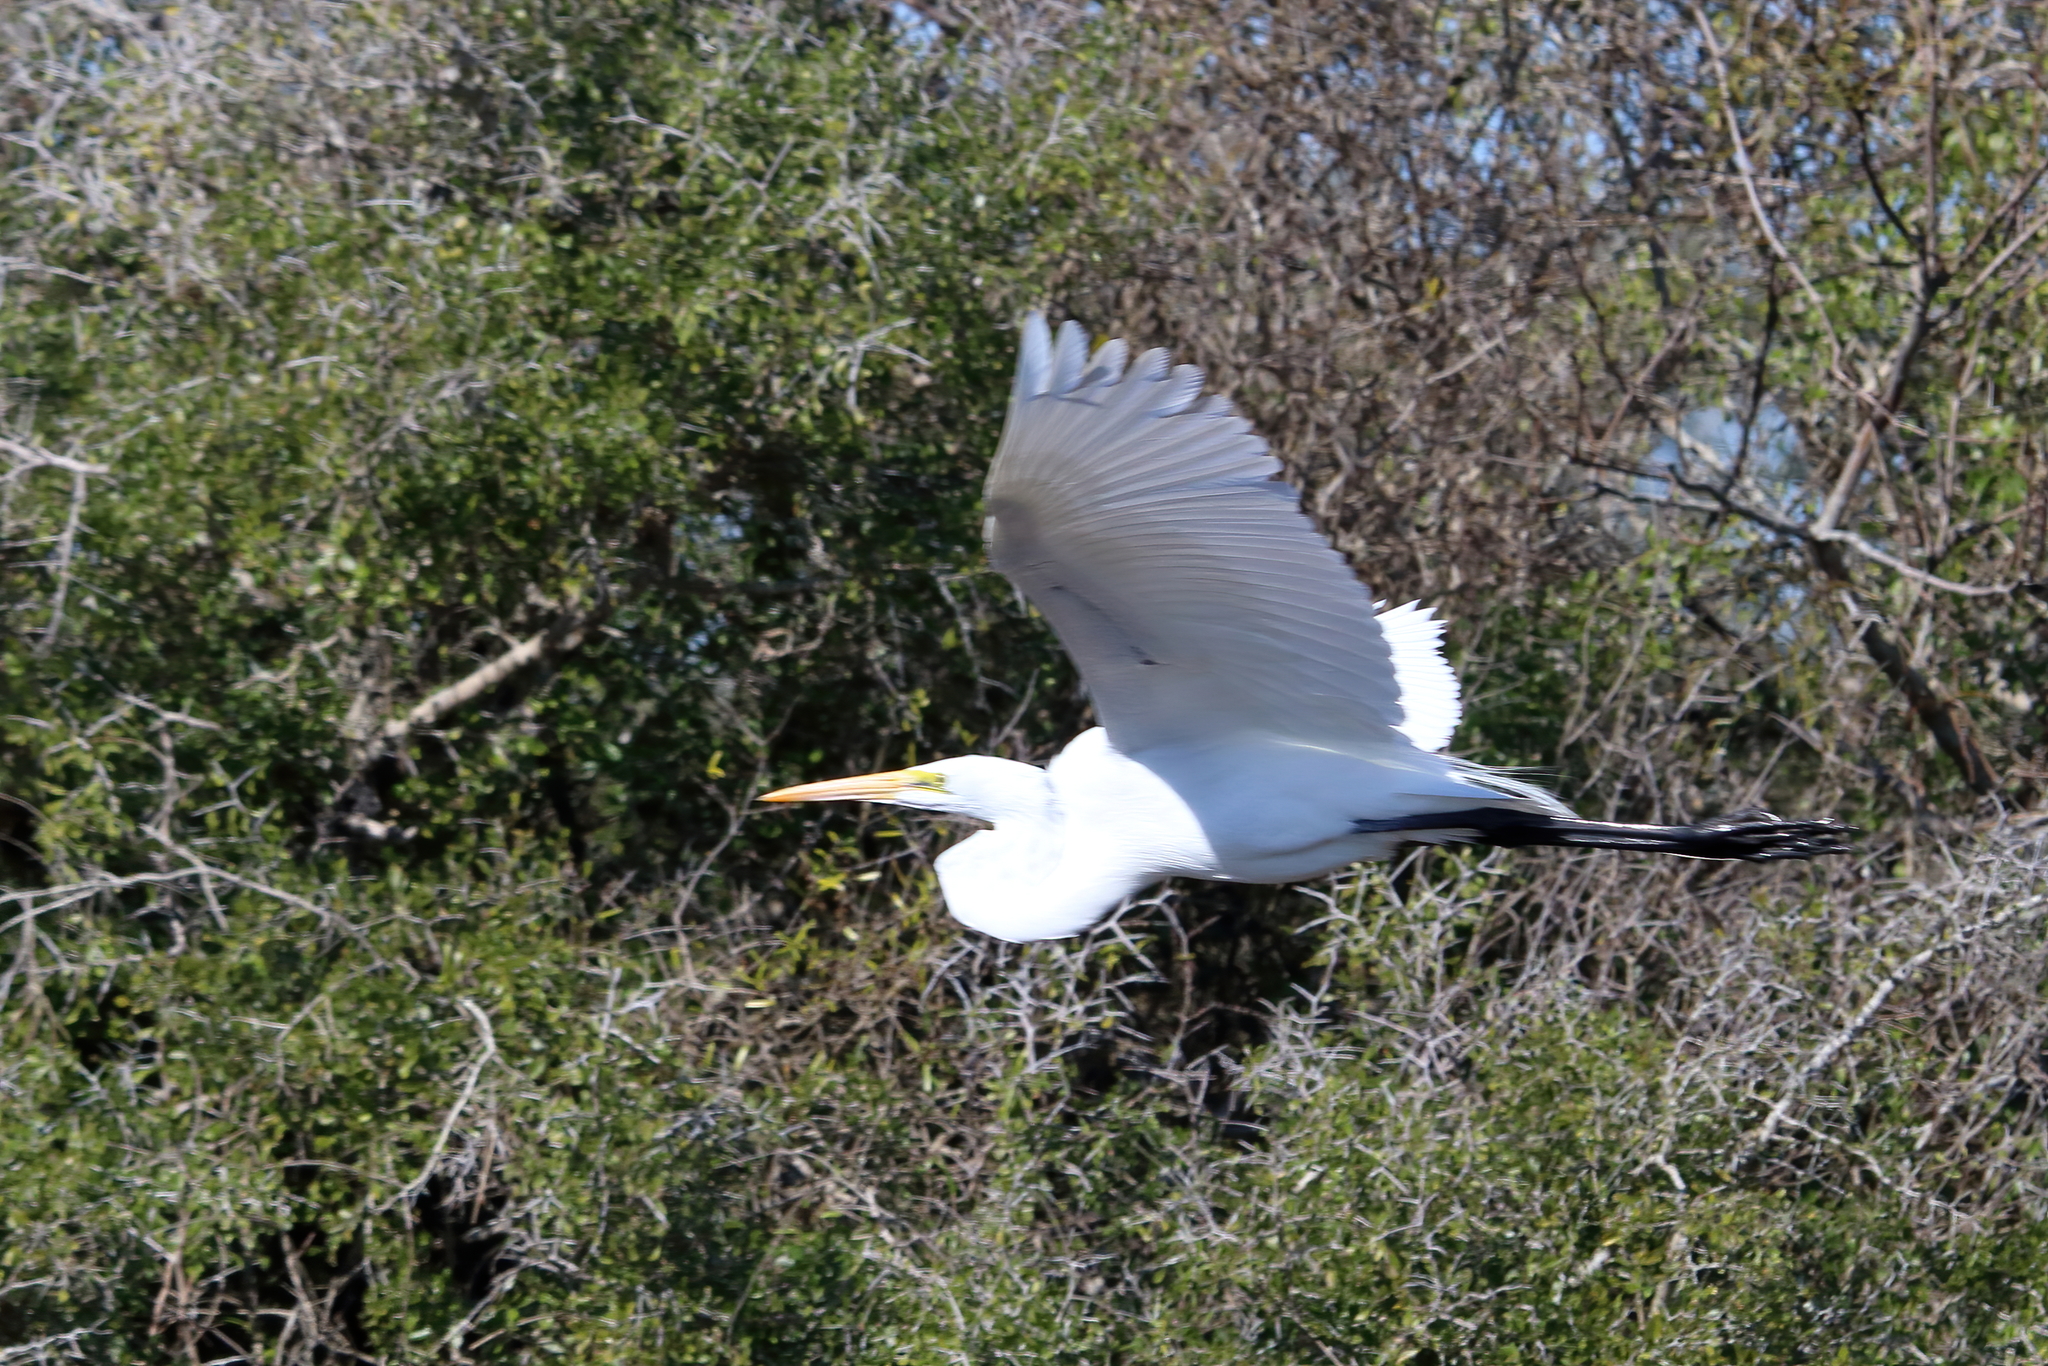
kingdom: Animalia
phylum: Chordata
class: Aves
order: Pelecaniformes
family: Ardeidae
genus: Ardea
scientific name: Ardea alba
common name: Great egret
